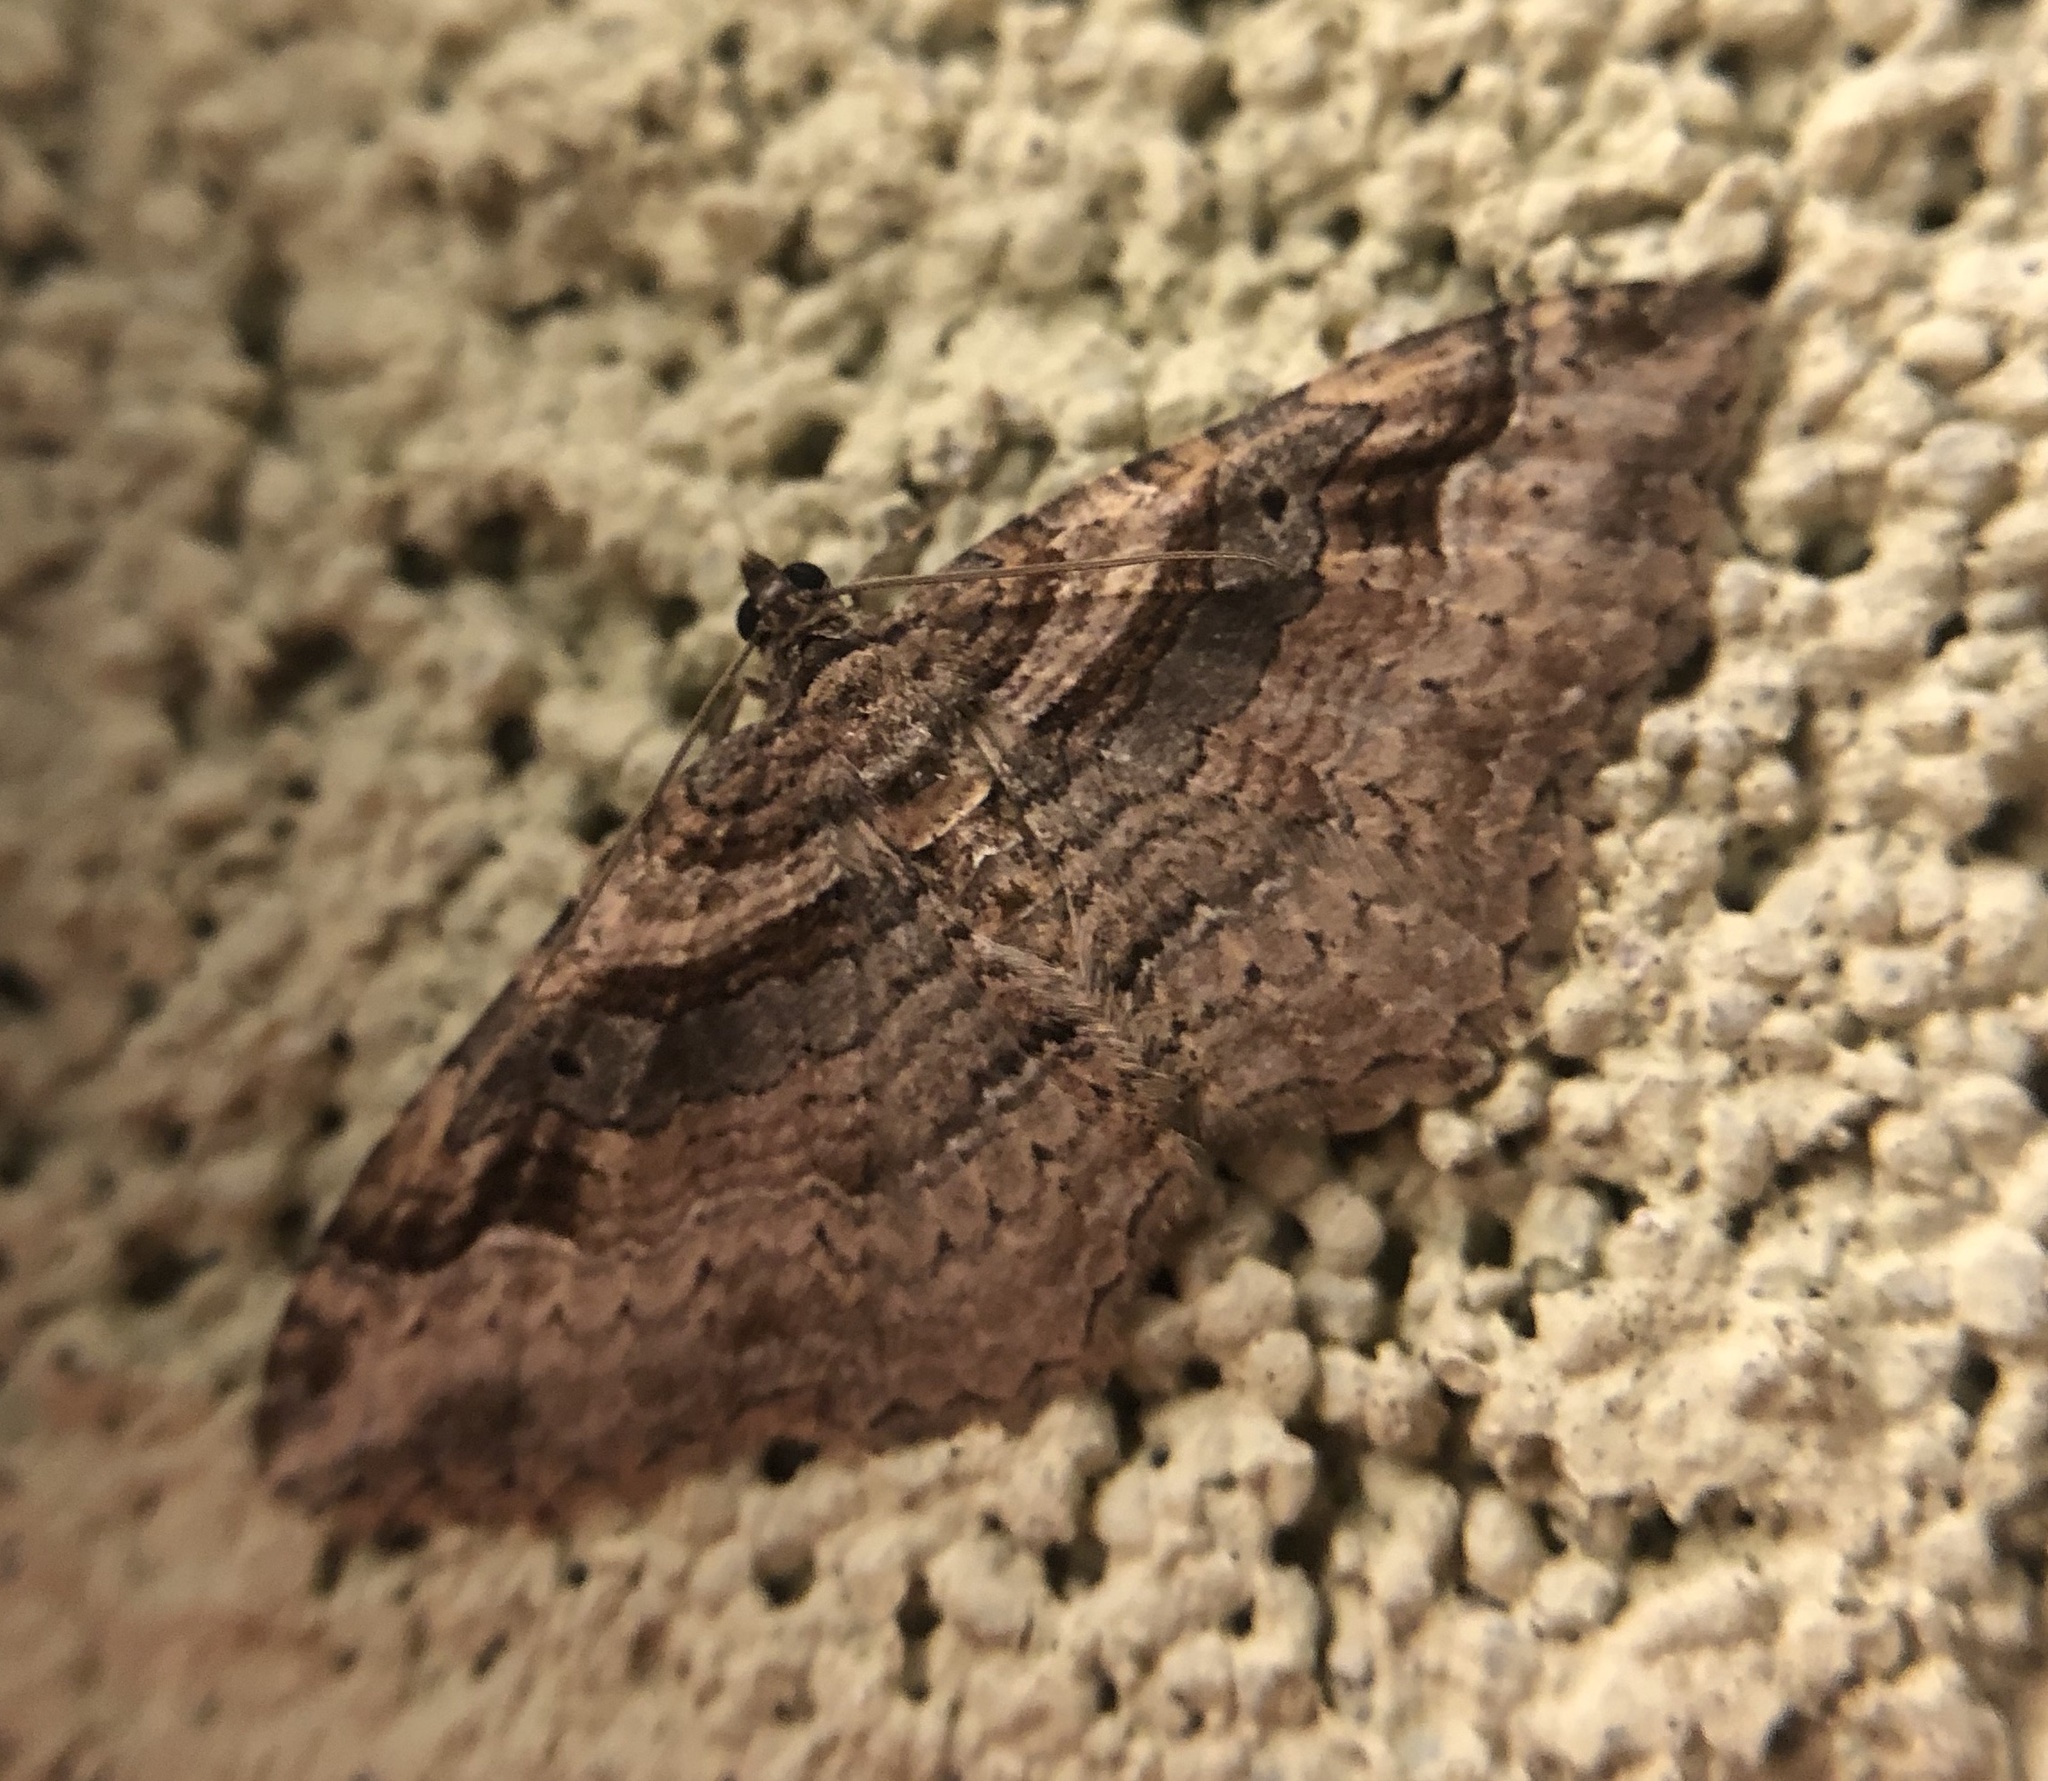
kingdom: Animalia
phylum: Arthropoda
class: Insecta
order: Lepidoptera
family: Geometridae
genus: Costaconvexa
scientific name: Costaconvexa centrostrigaria
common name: Bent-line carpet
